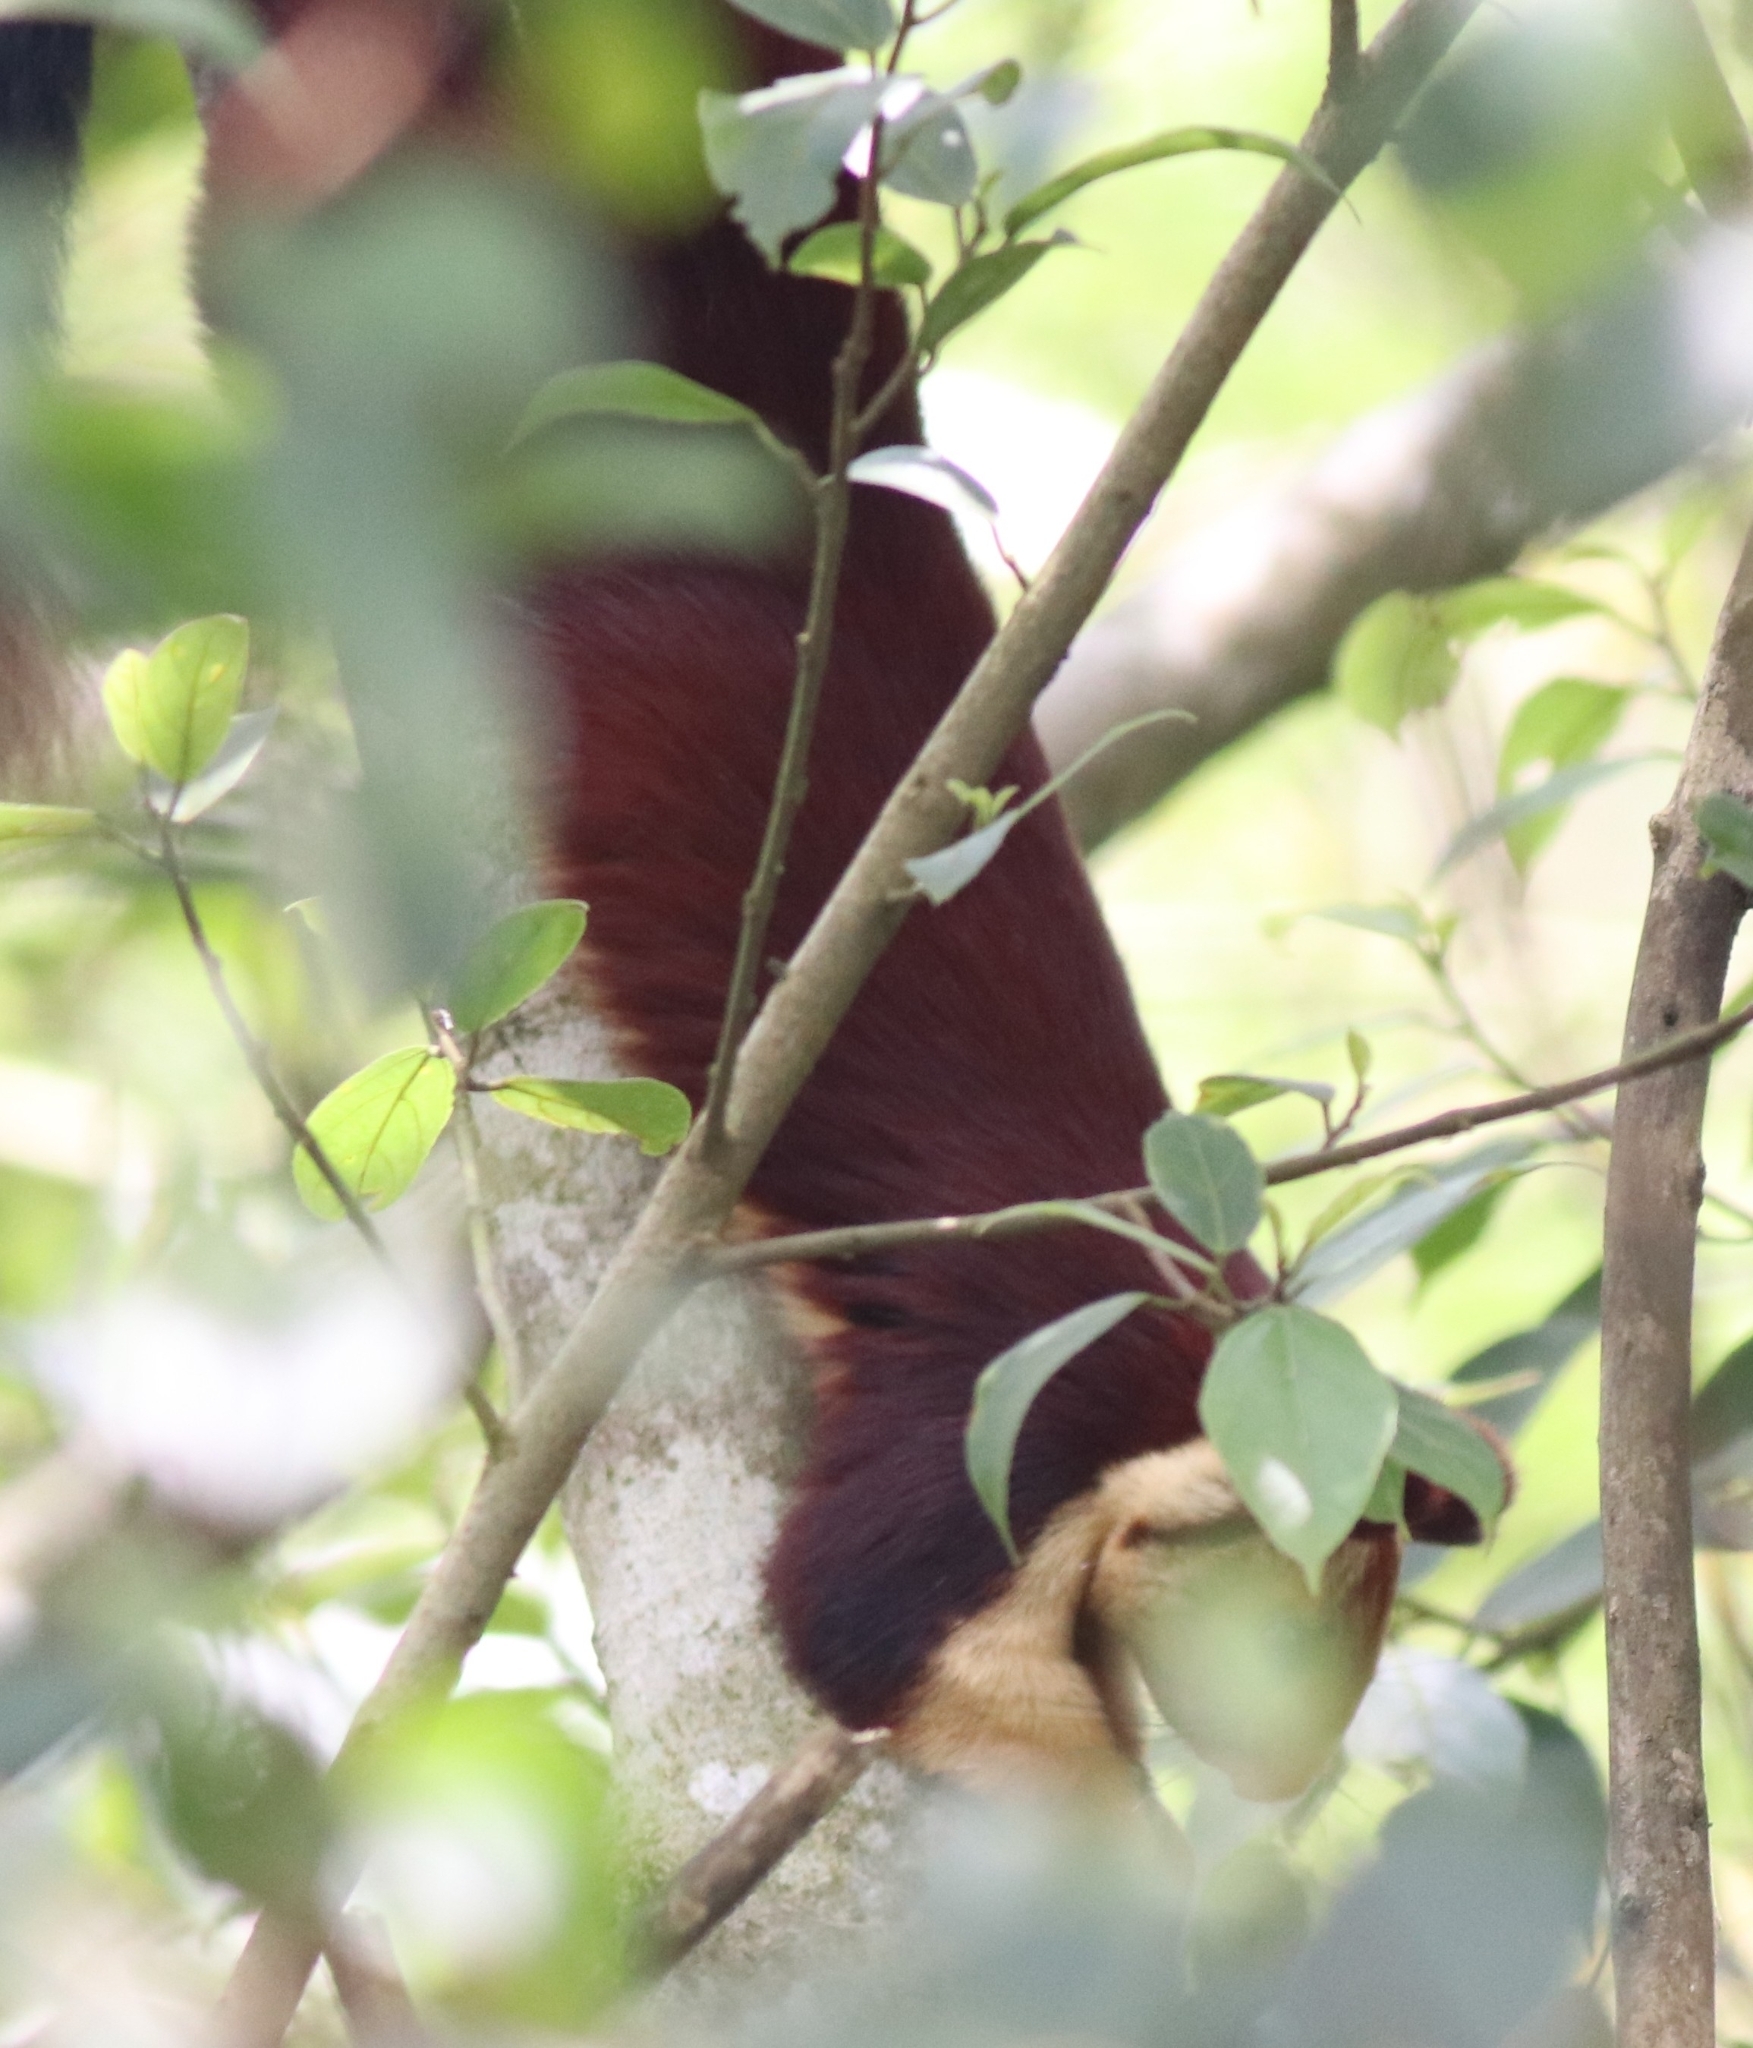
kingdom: Animalia
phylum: Chordata
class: Mammalia
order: Rodentia
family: Sciuridae
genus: Ratufa
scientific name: Ratufa indica
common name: Indian giant squirrel
